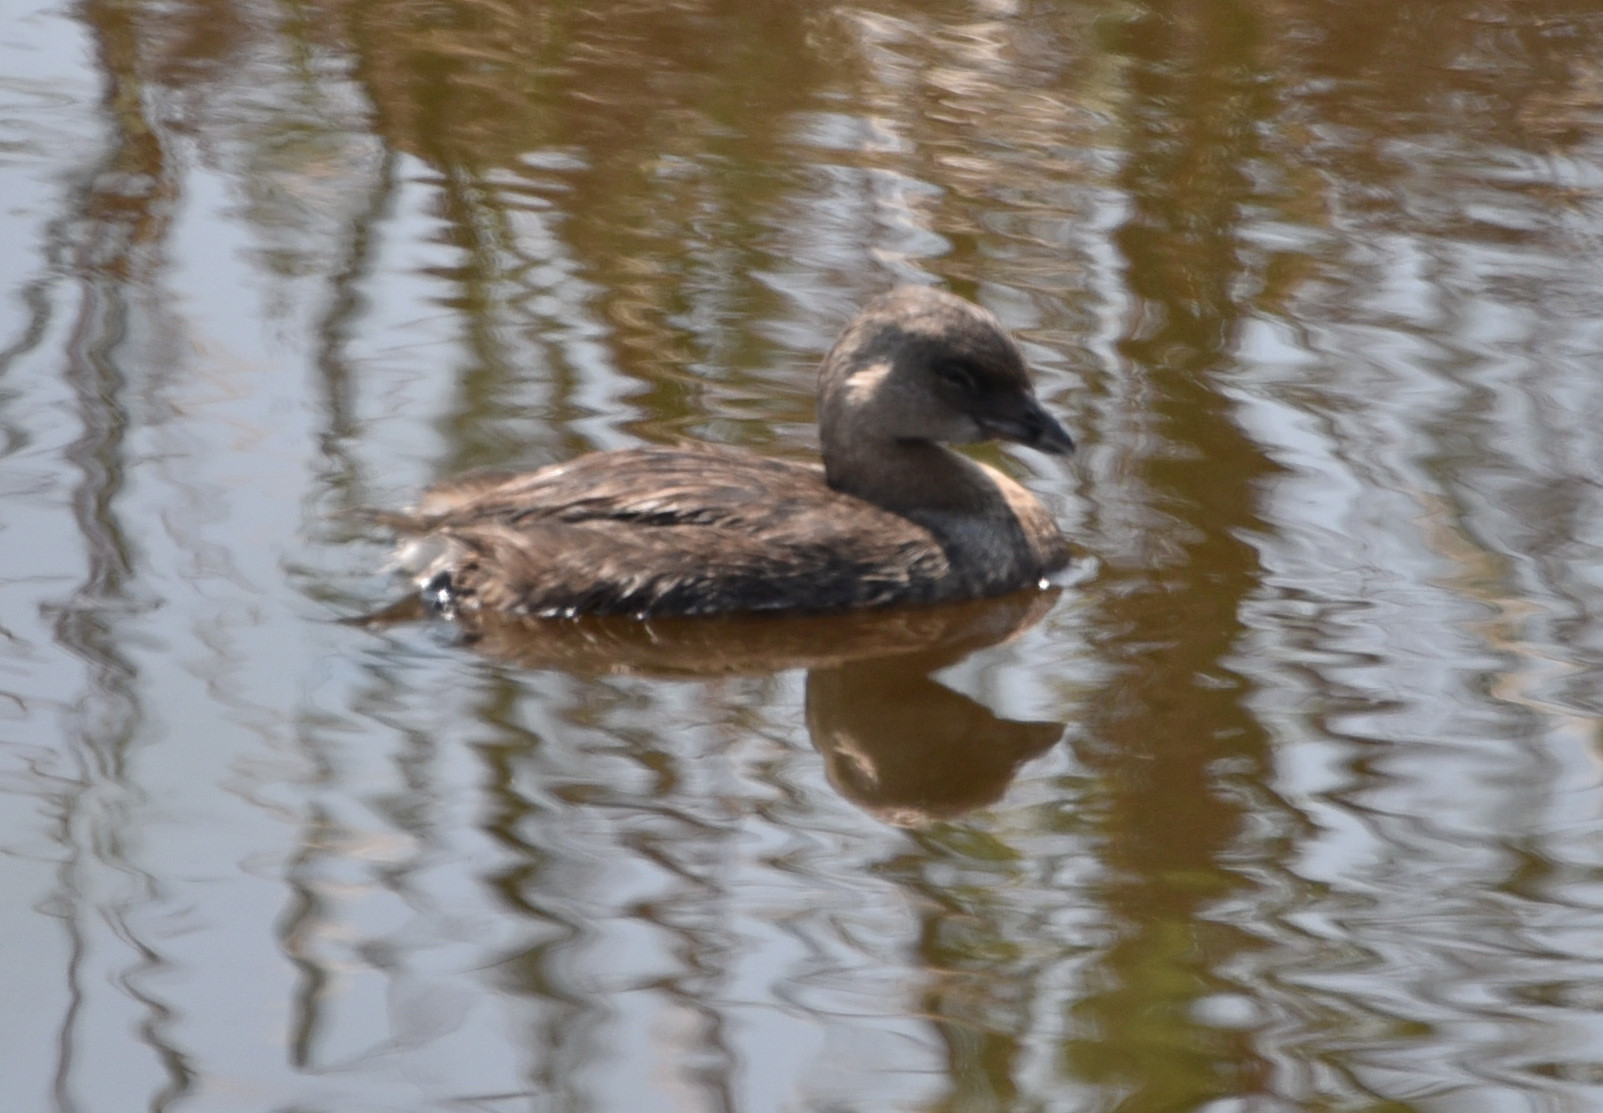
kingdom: Animalia
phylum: Chordata
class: Aves
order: Podicipediformes
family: Podicipedidae
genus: Podilymbus
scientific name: Podilymbus podiceps
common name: Pied-billed grebe
